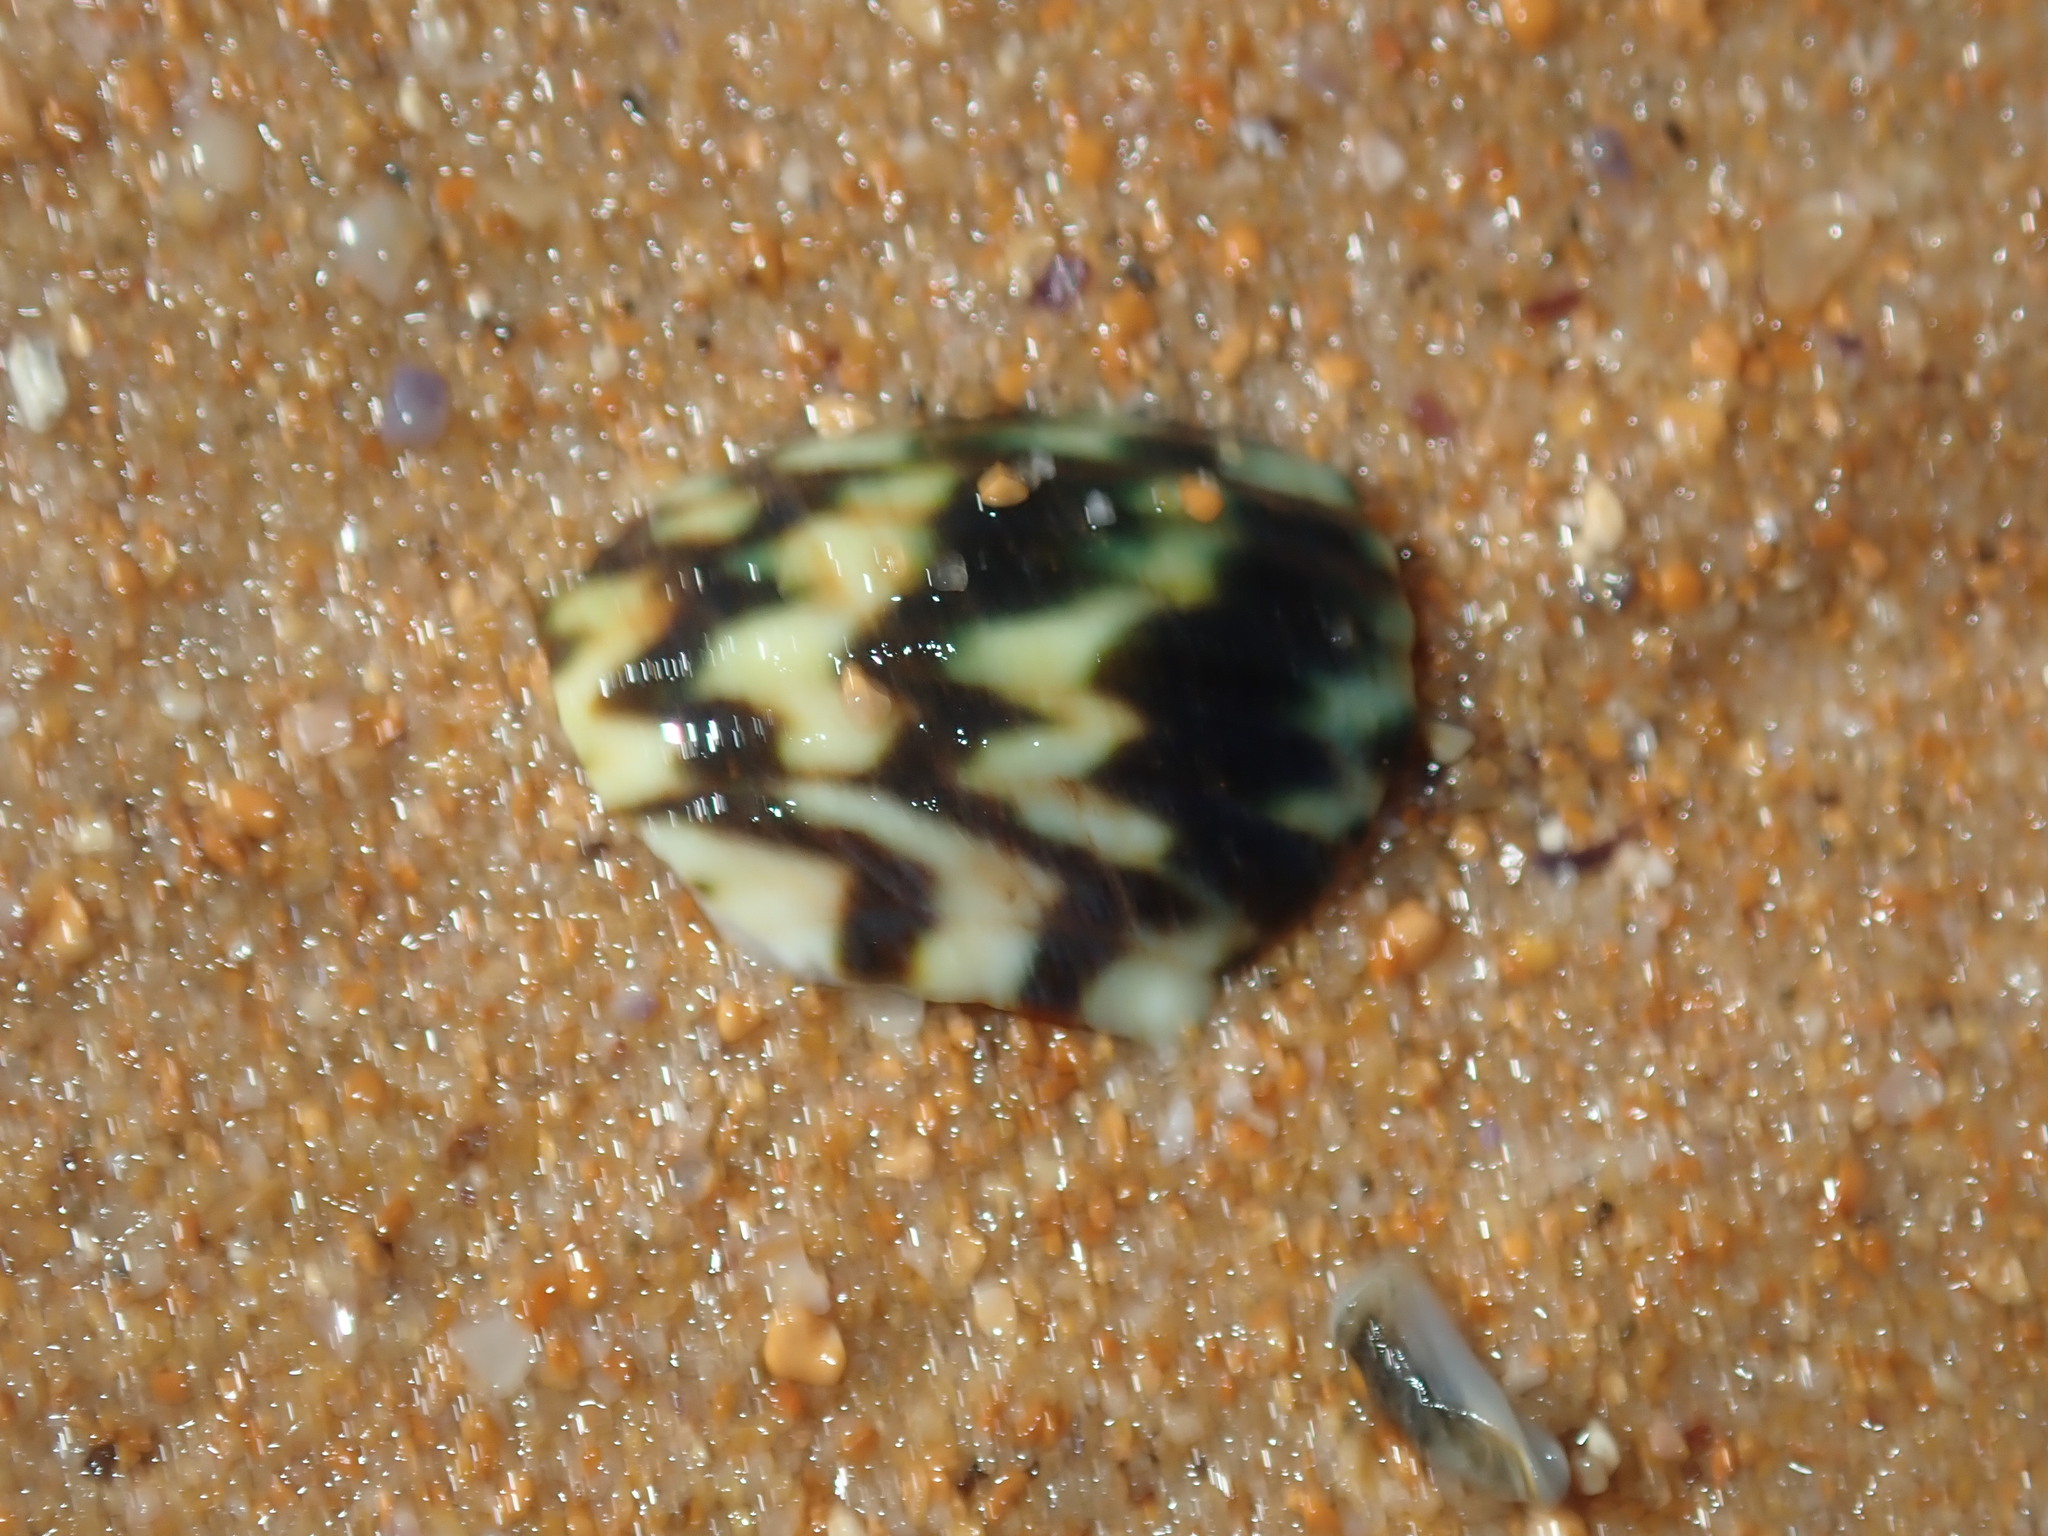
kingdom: Animalia
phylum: Mollusca
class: Gastropoda
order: Trochida
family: Turbinidae
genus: Lunella
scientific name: Lunella undulata
